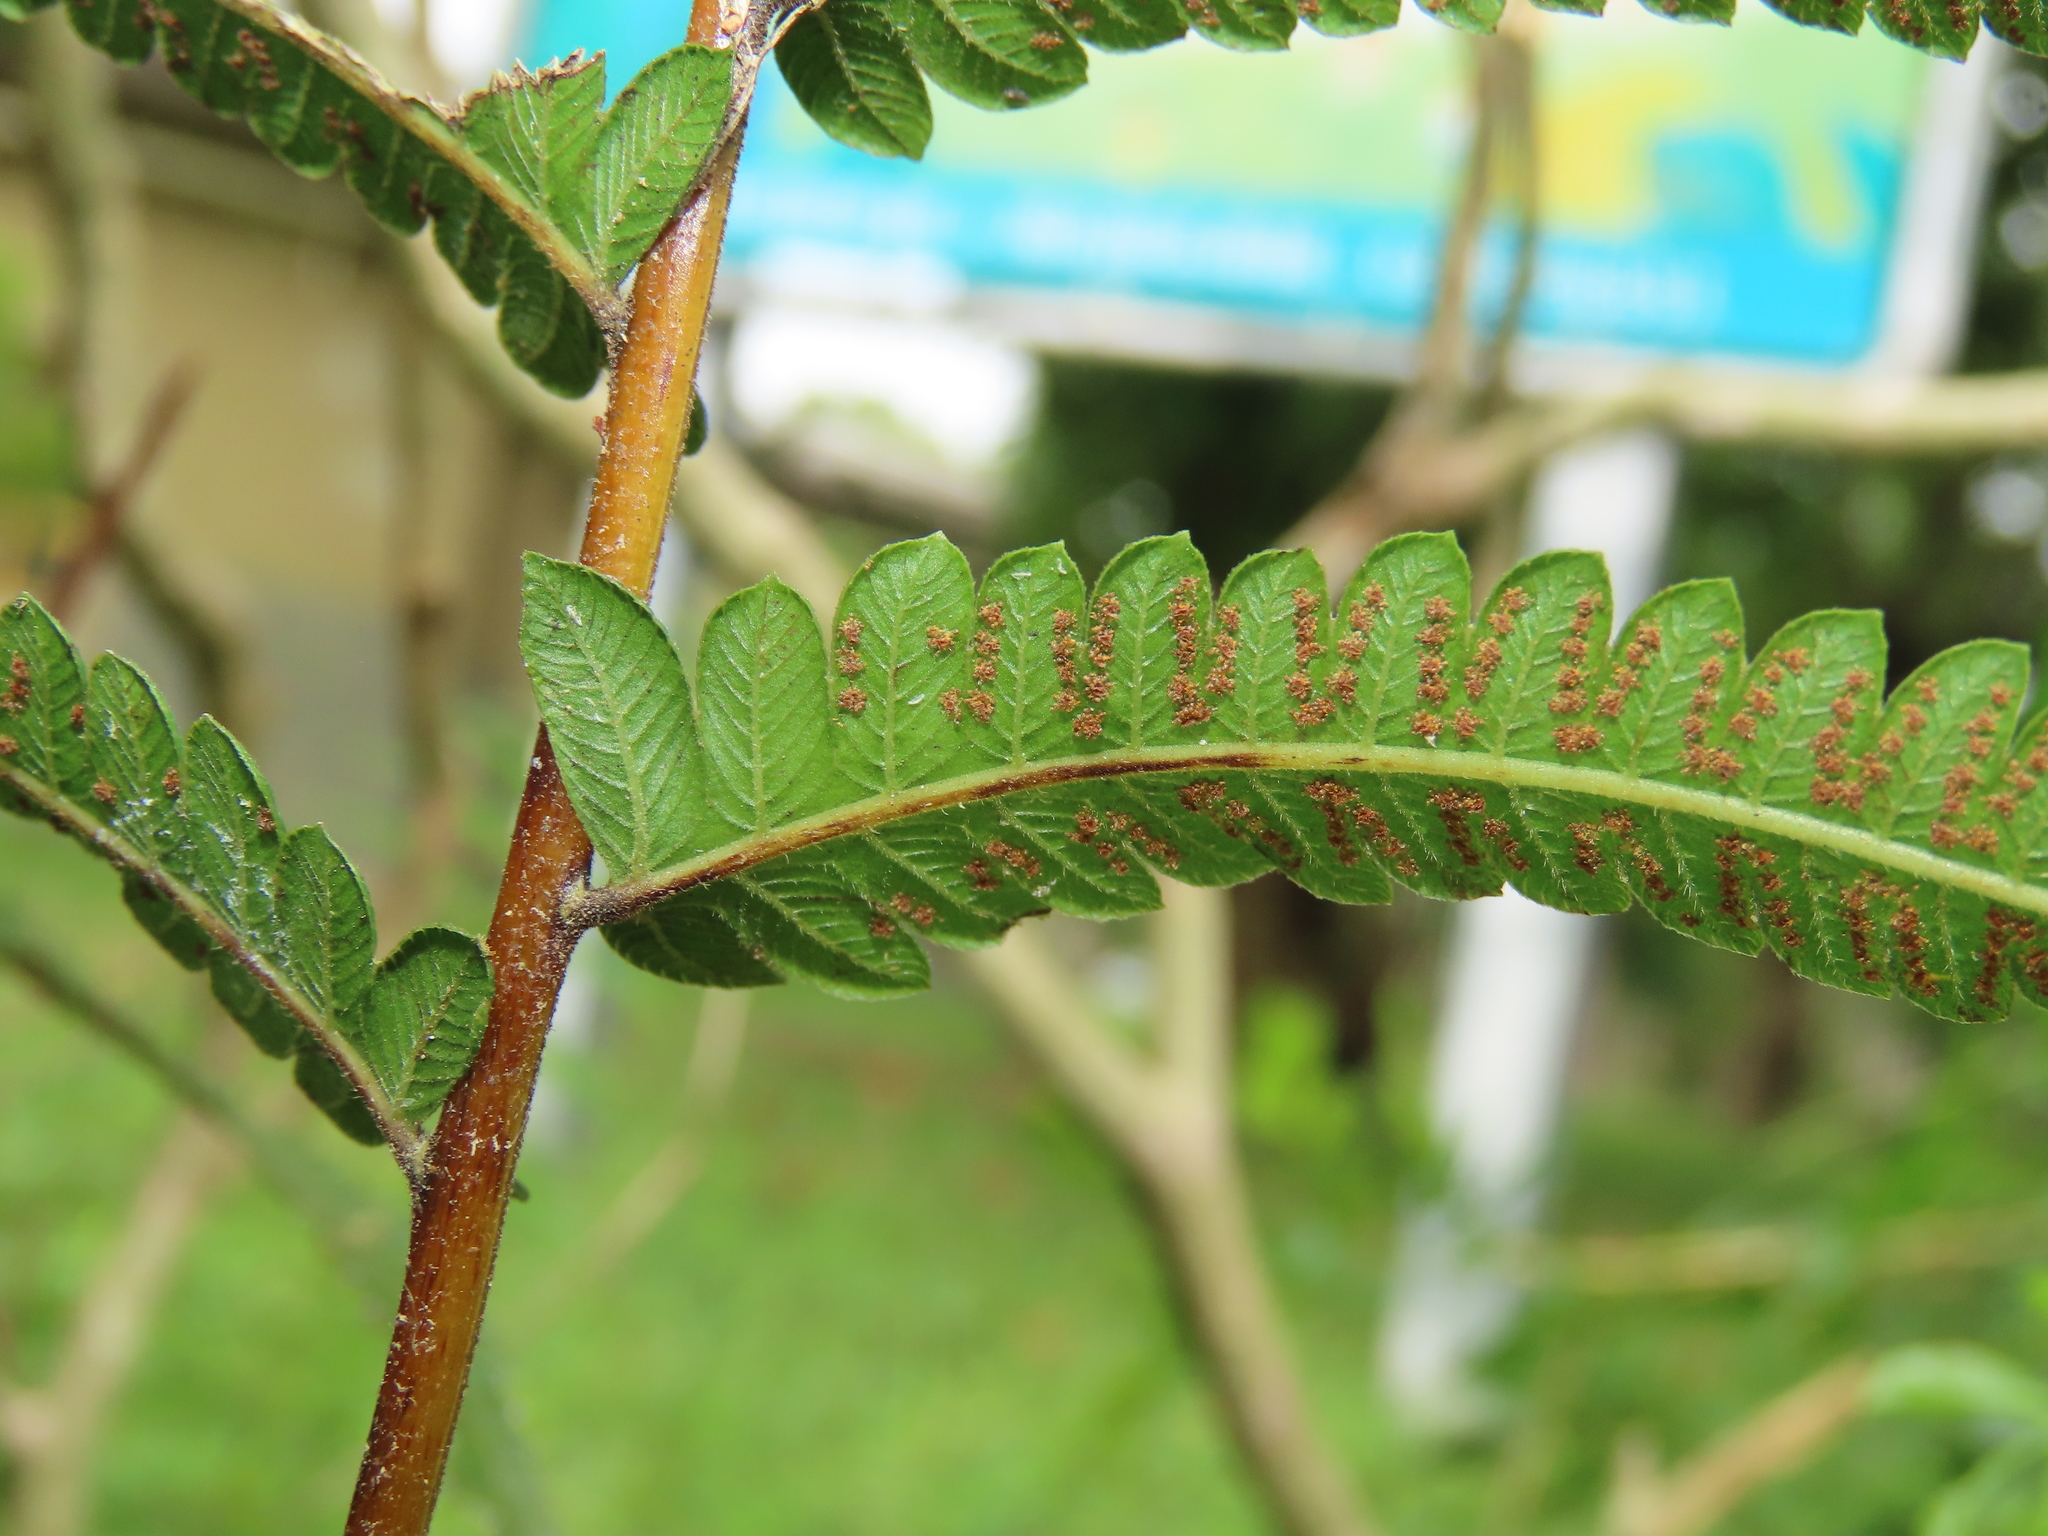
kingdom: Plantae
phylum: Tracheophyta
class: Polypodiopsida
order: Polypodiales
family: Thelypteridaceae
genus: Christella
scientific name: Christella acuminata
